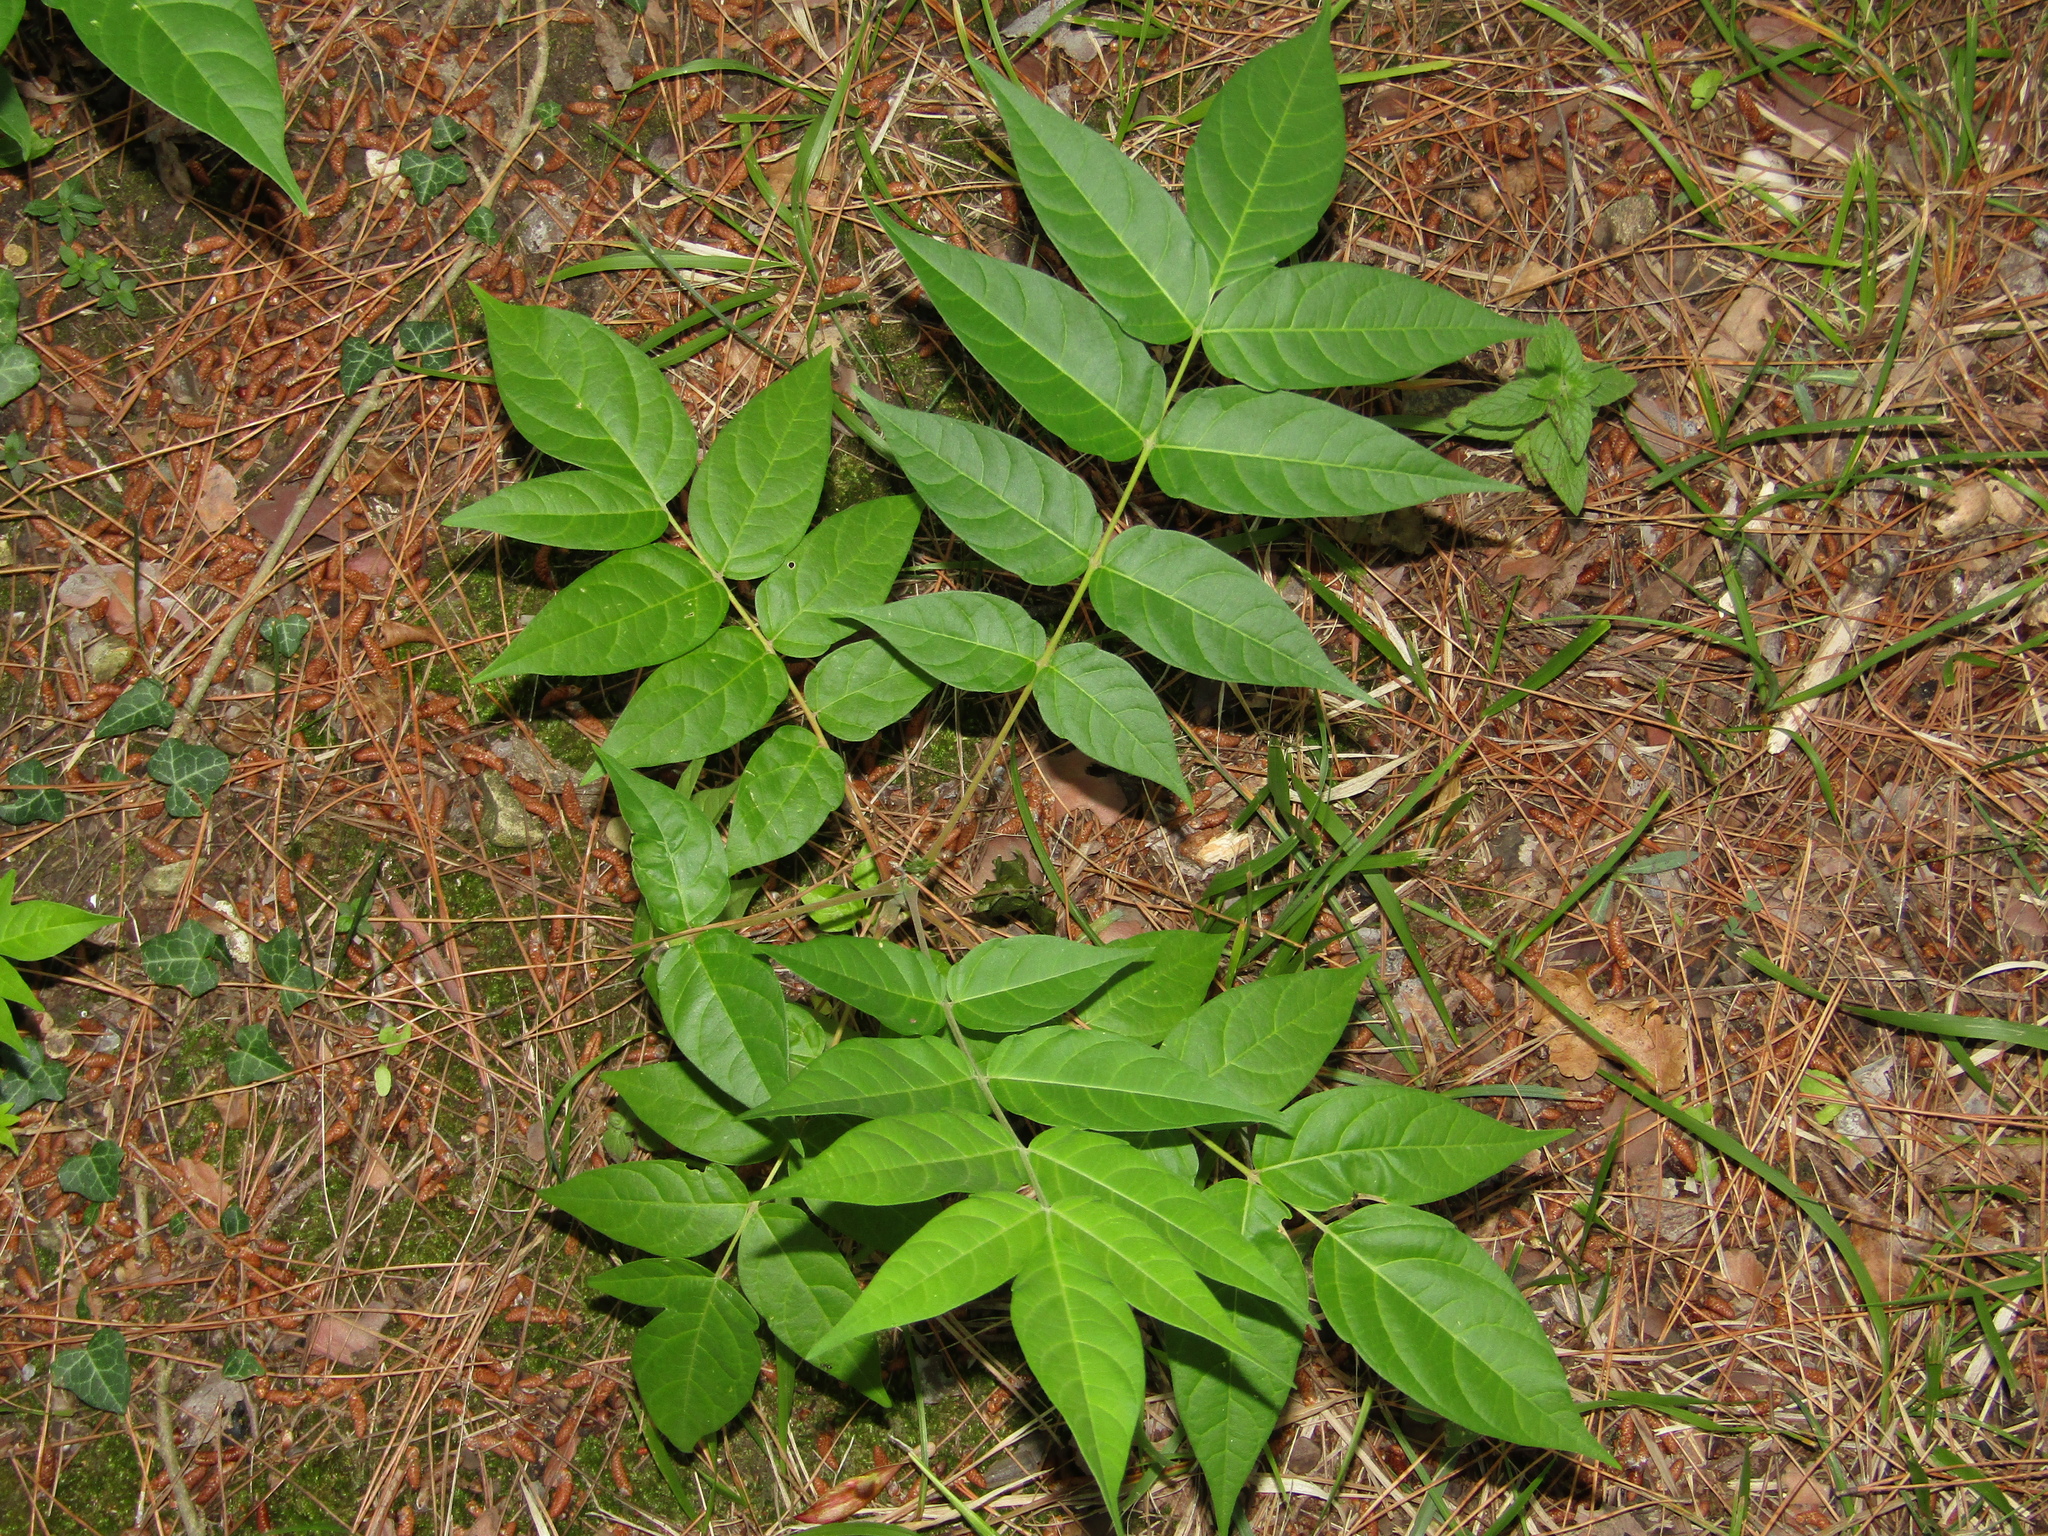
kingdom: Plantae
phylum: Tracheophyta
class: Magnoliopsida
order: Sapindales
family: Simaroubaceae
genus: Ailanthus
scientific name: Ailanthus altissima
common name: Tree-of-heaven
